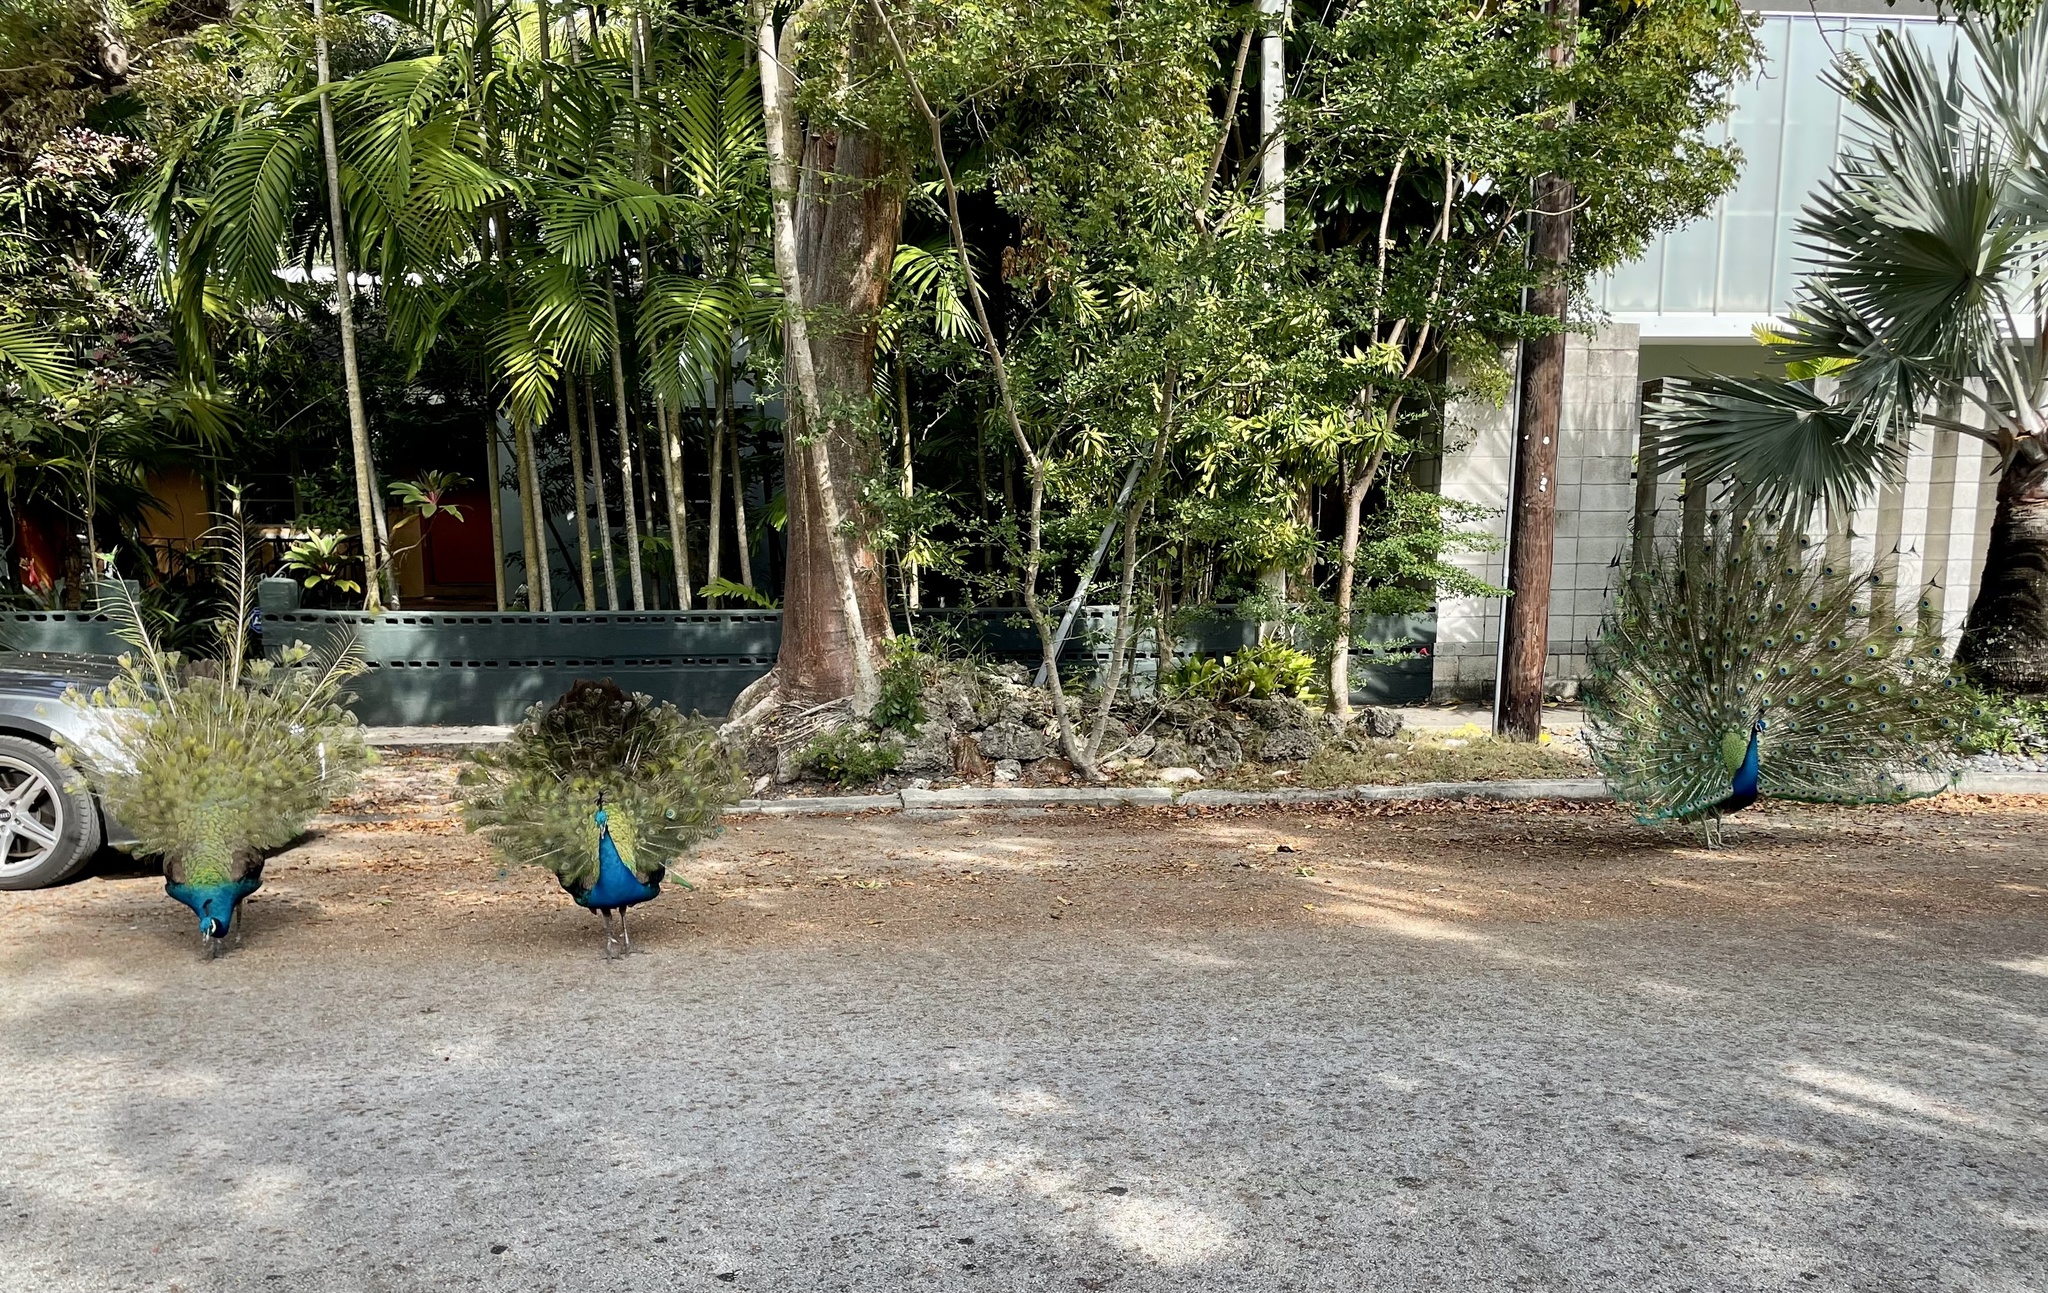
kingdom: Animalia
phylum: Chordata
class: Aves
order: Galliformes
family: Phasianidae
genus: Pavo
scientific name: Pavo cristatus
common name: Indian peafowl
